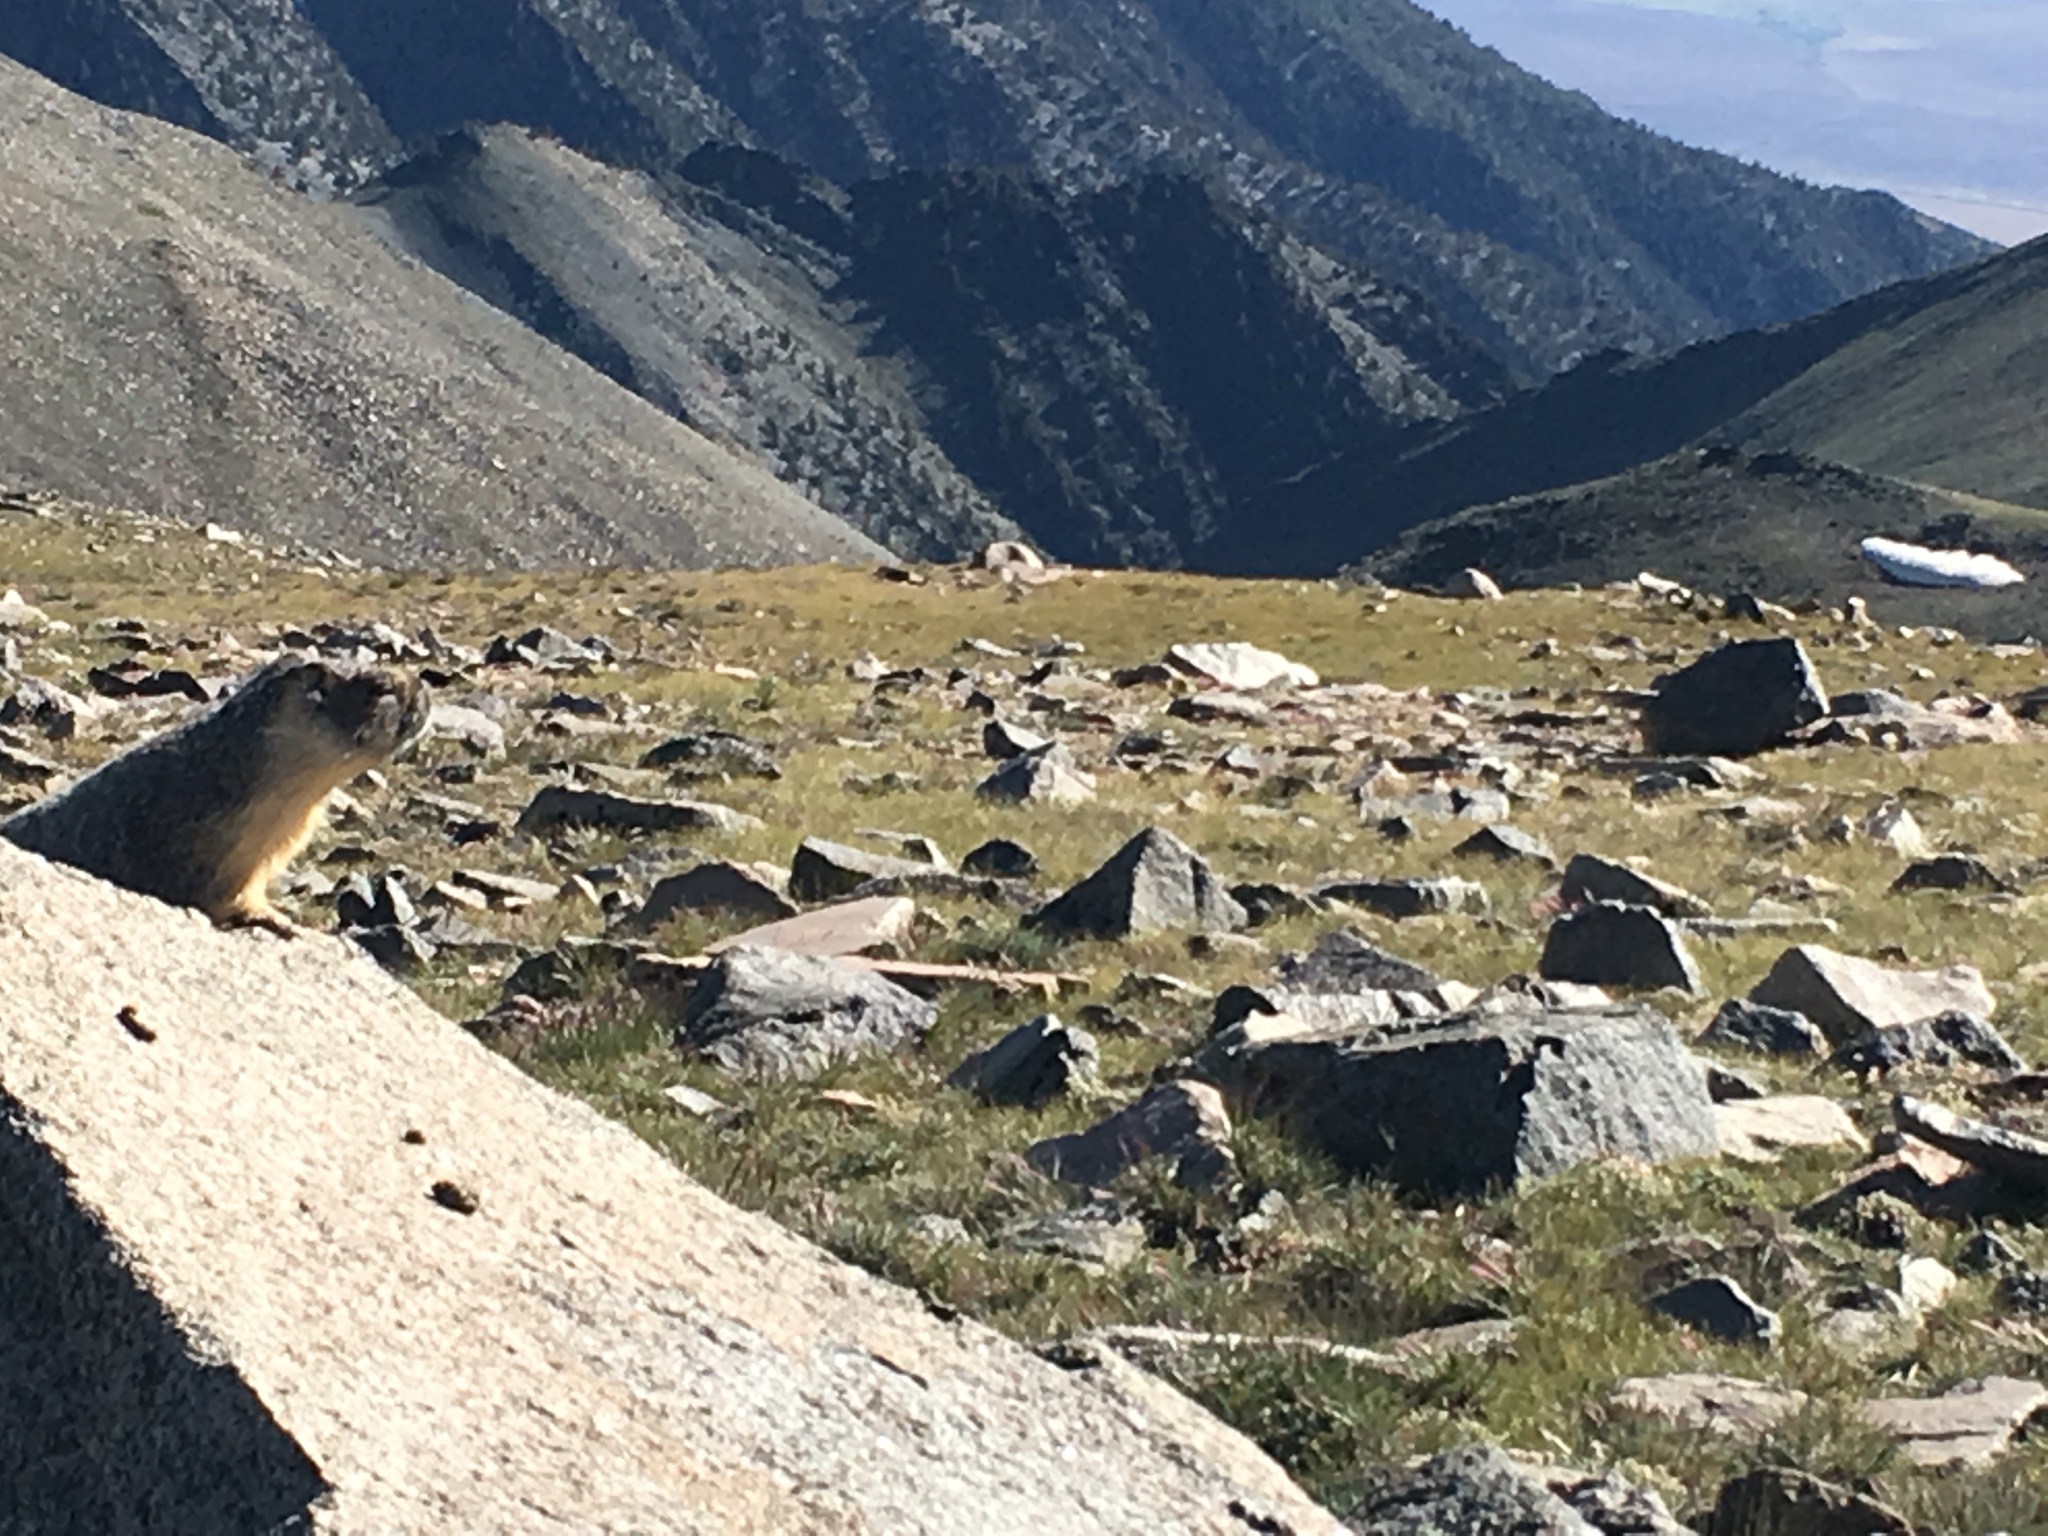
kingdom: Animalia
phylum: Chordata
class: Mammalia
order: Rodentia
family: Sciuridae
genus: Marmota
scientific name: Marmota flaviventris
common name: Yellow-bellied marmot
